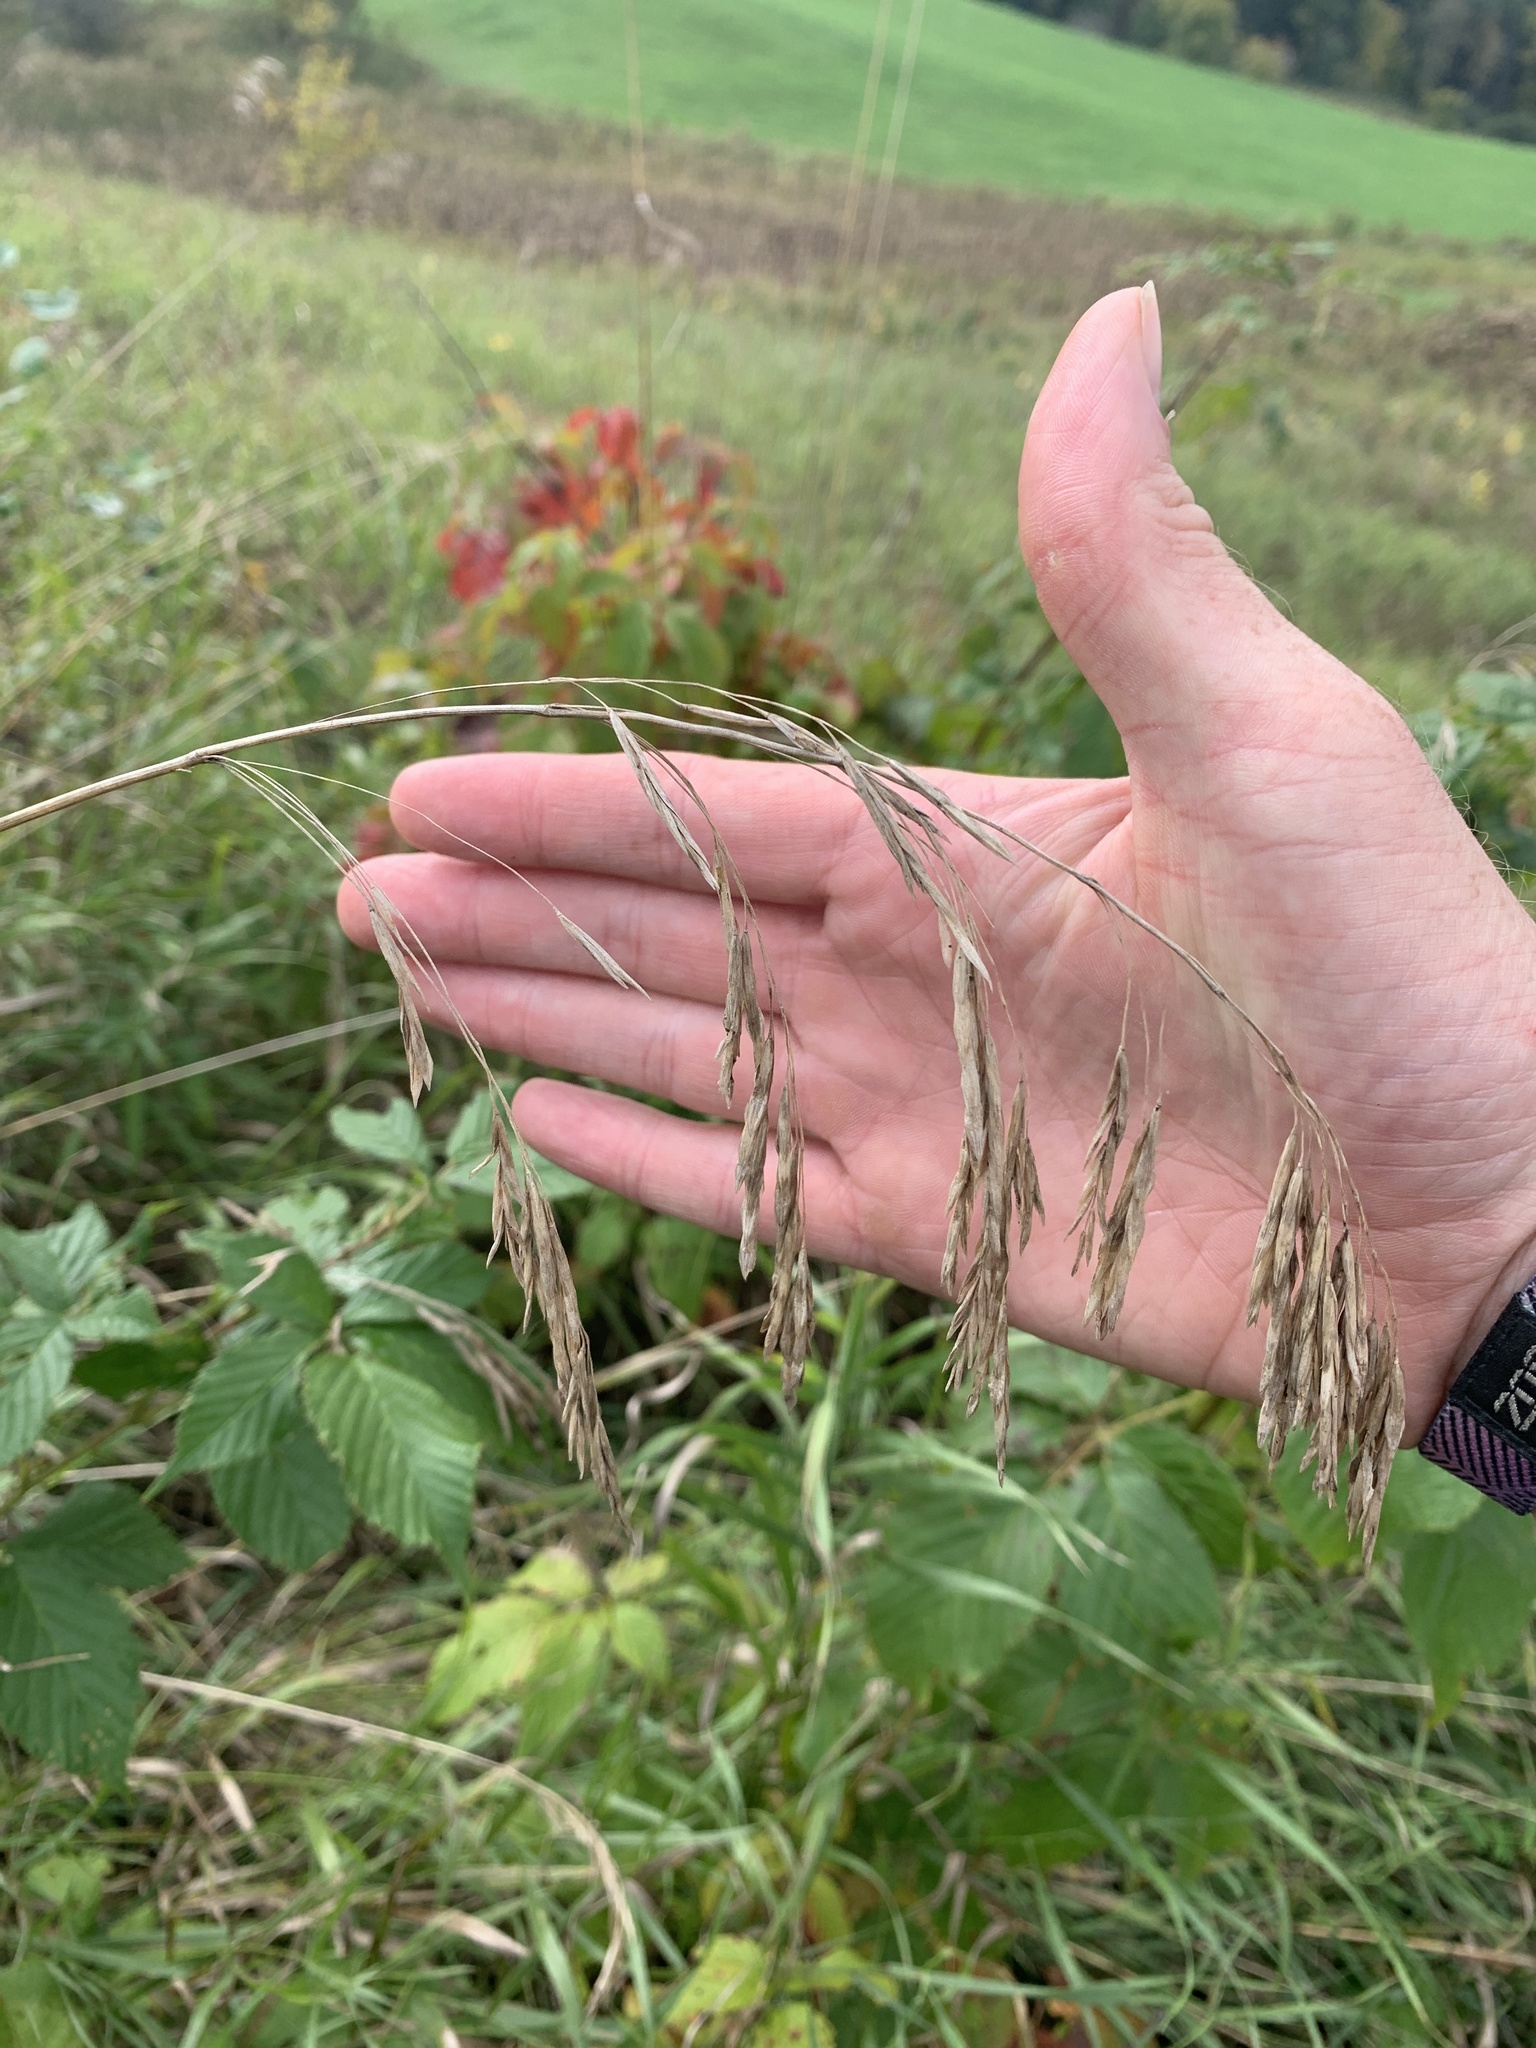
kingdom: Plantae
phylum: Tracheophyta
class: Liliopsida
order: Poales
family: Poaceae
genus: Bromus
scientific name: Bromus inermis
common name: Smooth brome
